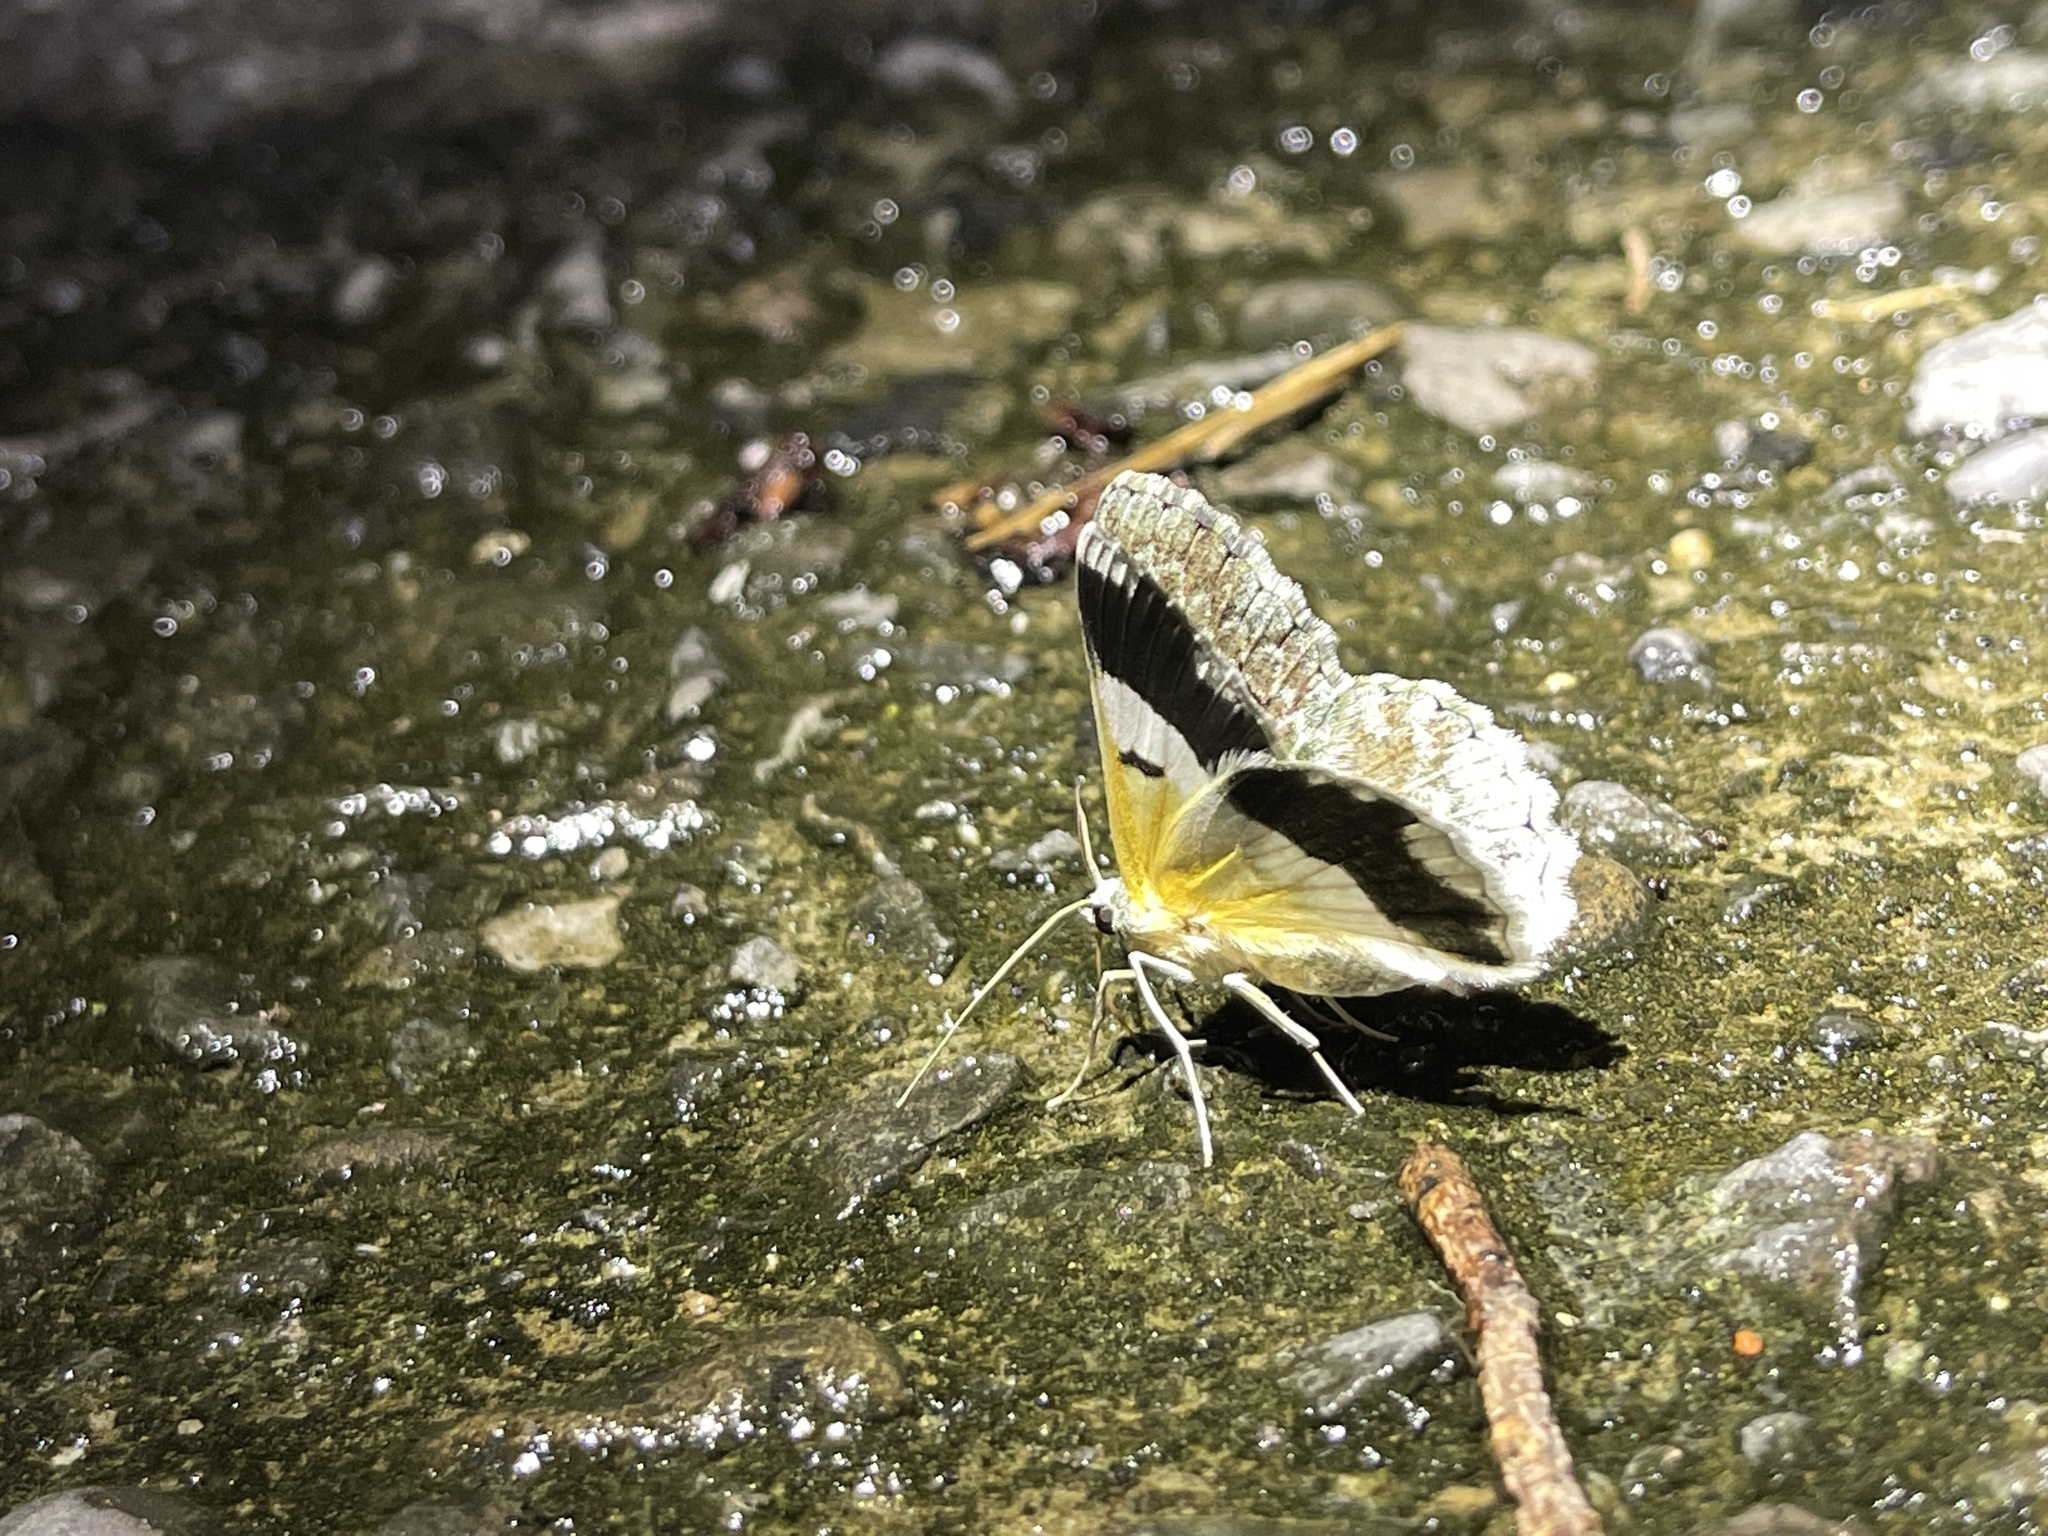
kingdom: Animalia
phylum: Arthropoda
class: Insecta
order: Lepidoptera
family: Geometridae
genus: Pingasa
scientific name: Pingasa ruginaria
